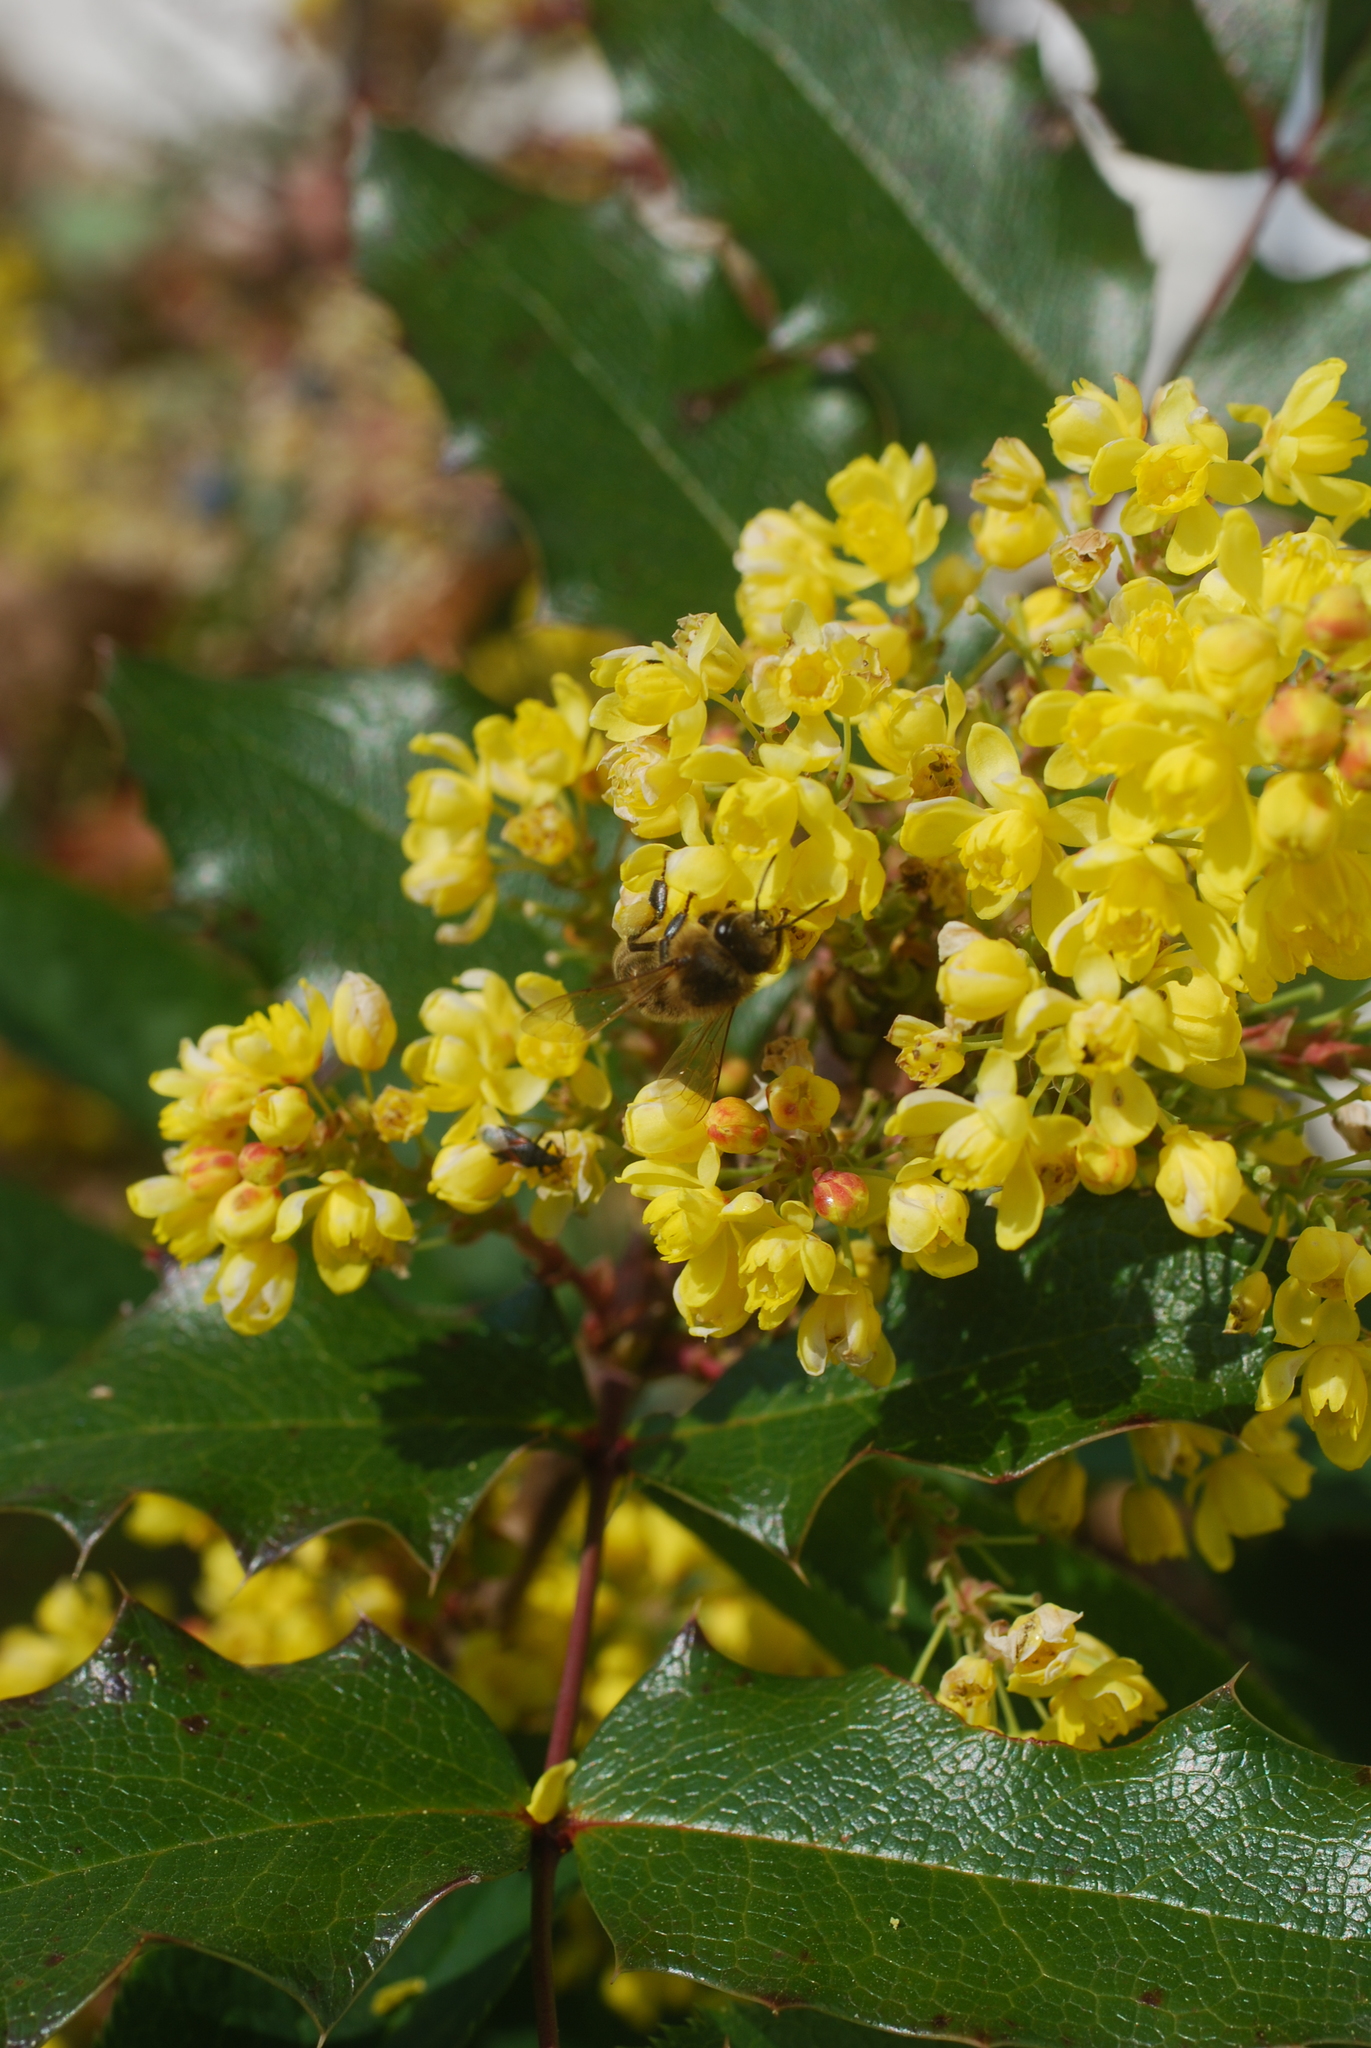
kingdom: Animalia
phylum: Arthropoda
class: Insecta
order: Hymenoptera
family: Apidae
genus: Apis
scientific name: Apis mellifera
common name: Honey bee
